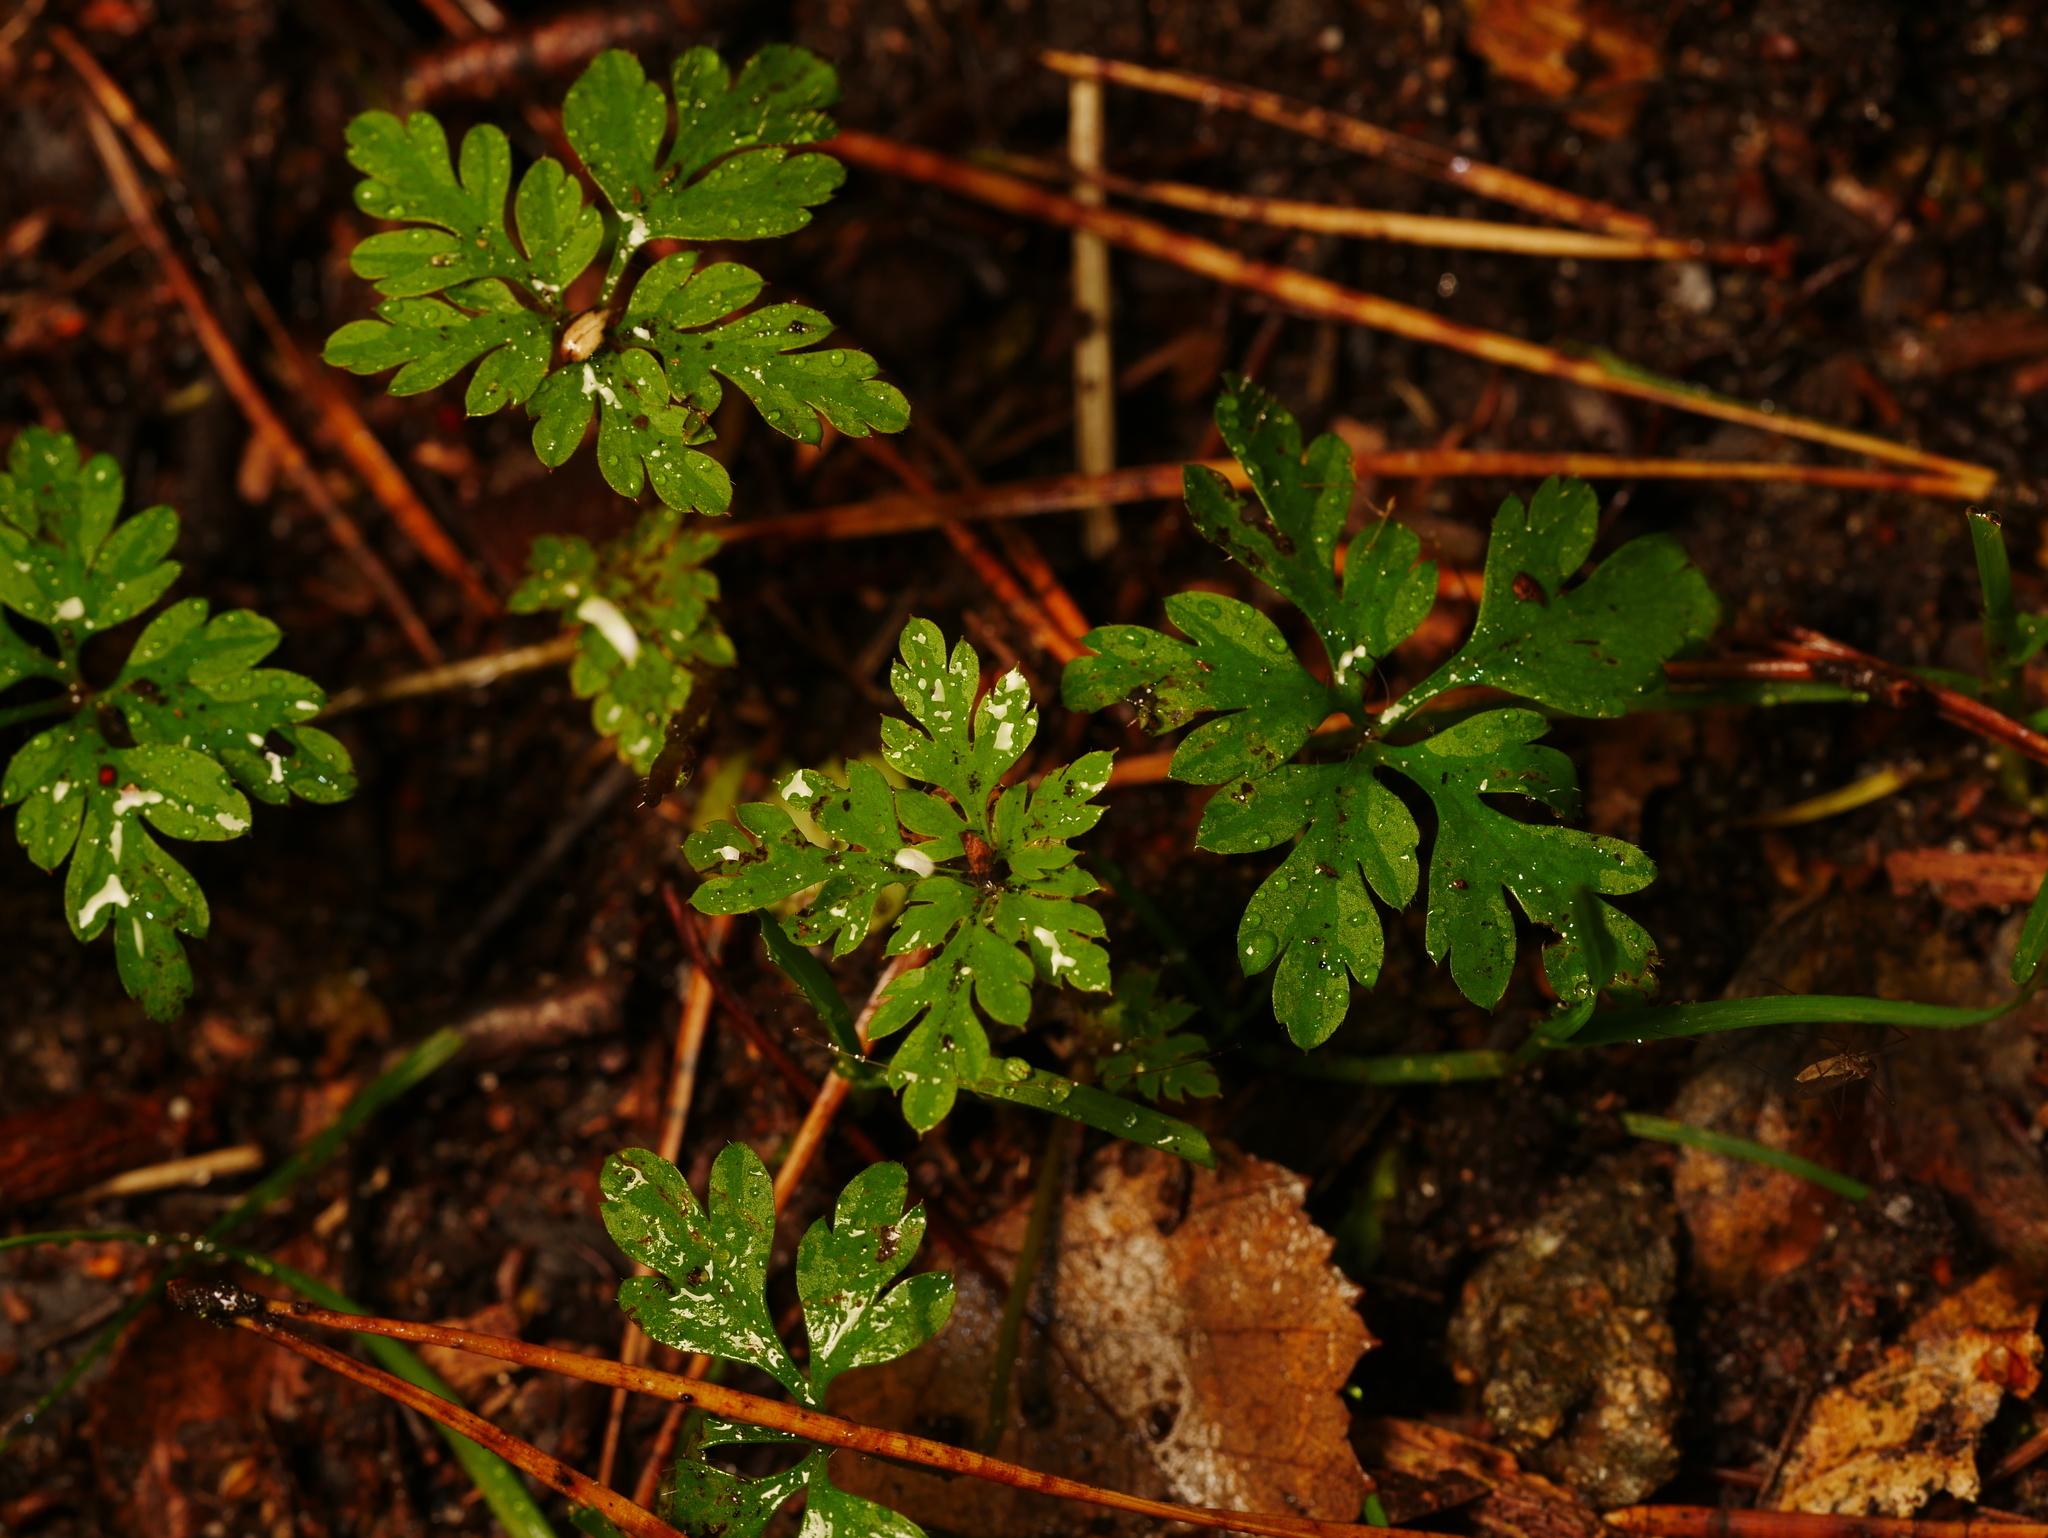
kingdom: Plantae
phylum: Tracheophyta
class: Magnoliopsida
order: Geraniales
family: Geraniaceae
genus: Geranium
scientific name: Geranium robertianum
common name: Herb-robert
